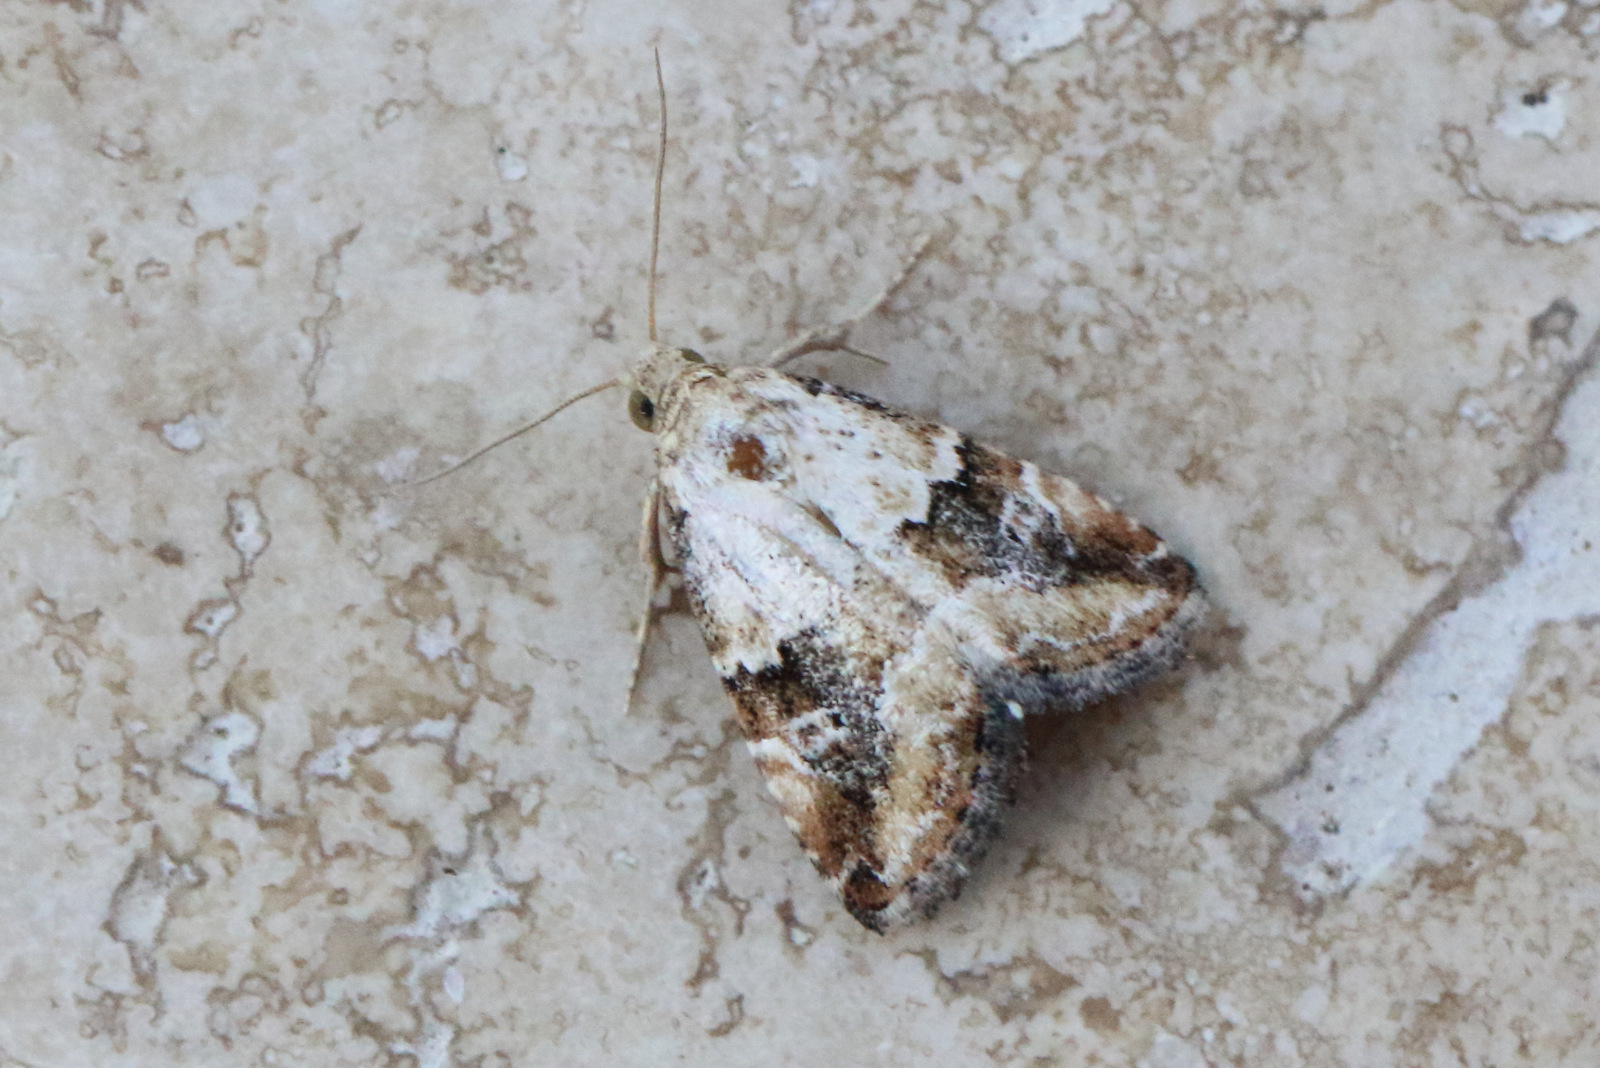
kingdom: Animalia
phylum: Arthropoda
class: Insecta
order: Lepidoptera
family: Noctuidae
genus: Maliattha
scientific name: Maliattha amorpha
